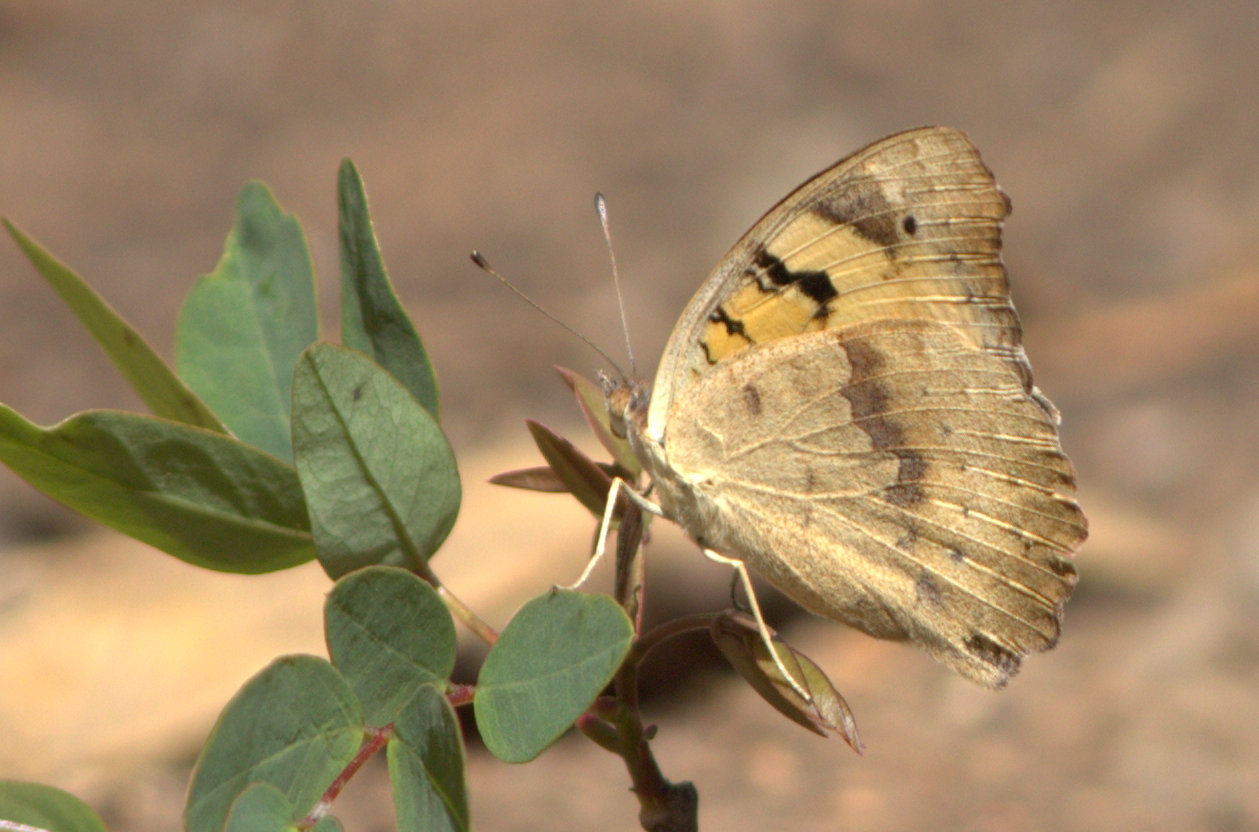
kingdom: Animalia
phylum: Arthropoda
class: Insecta
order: Lepidoptera
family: Nymphalidae
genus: Junonia
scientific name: Junonia hierta
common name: Yellow pansy
